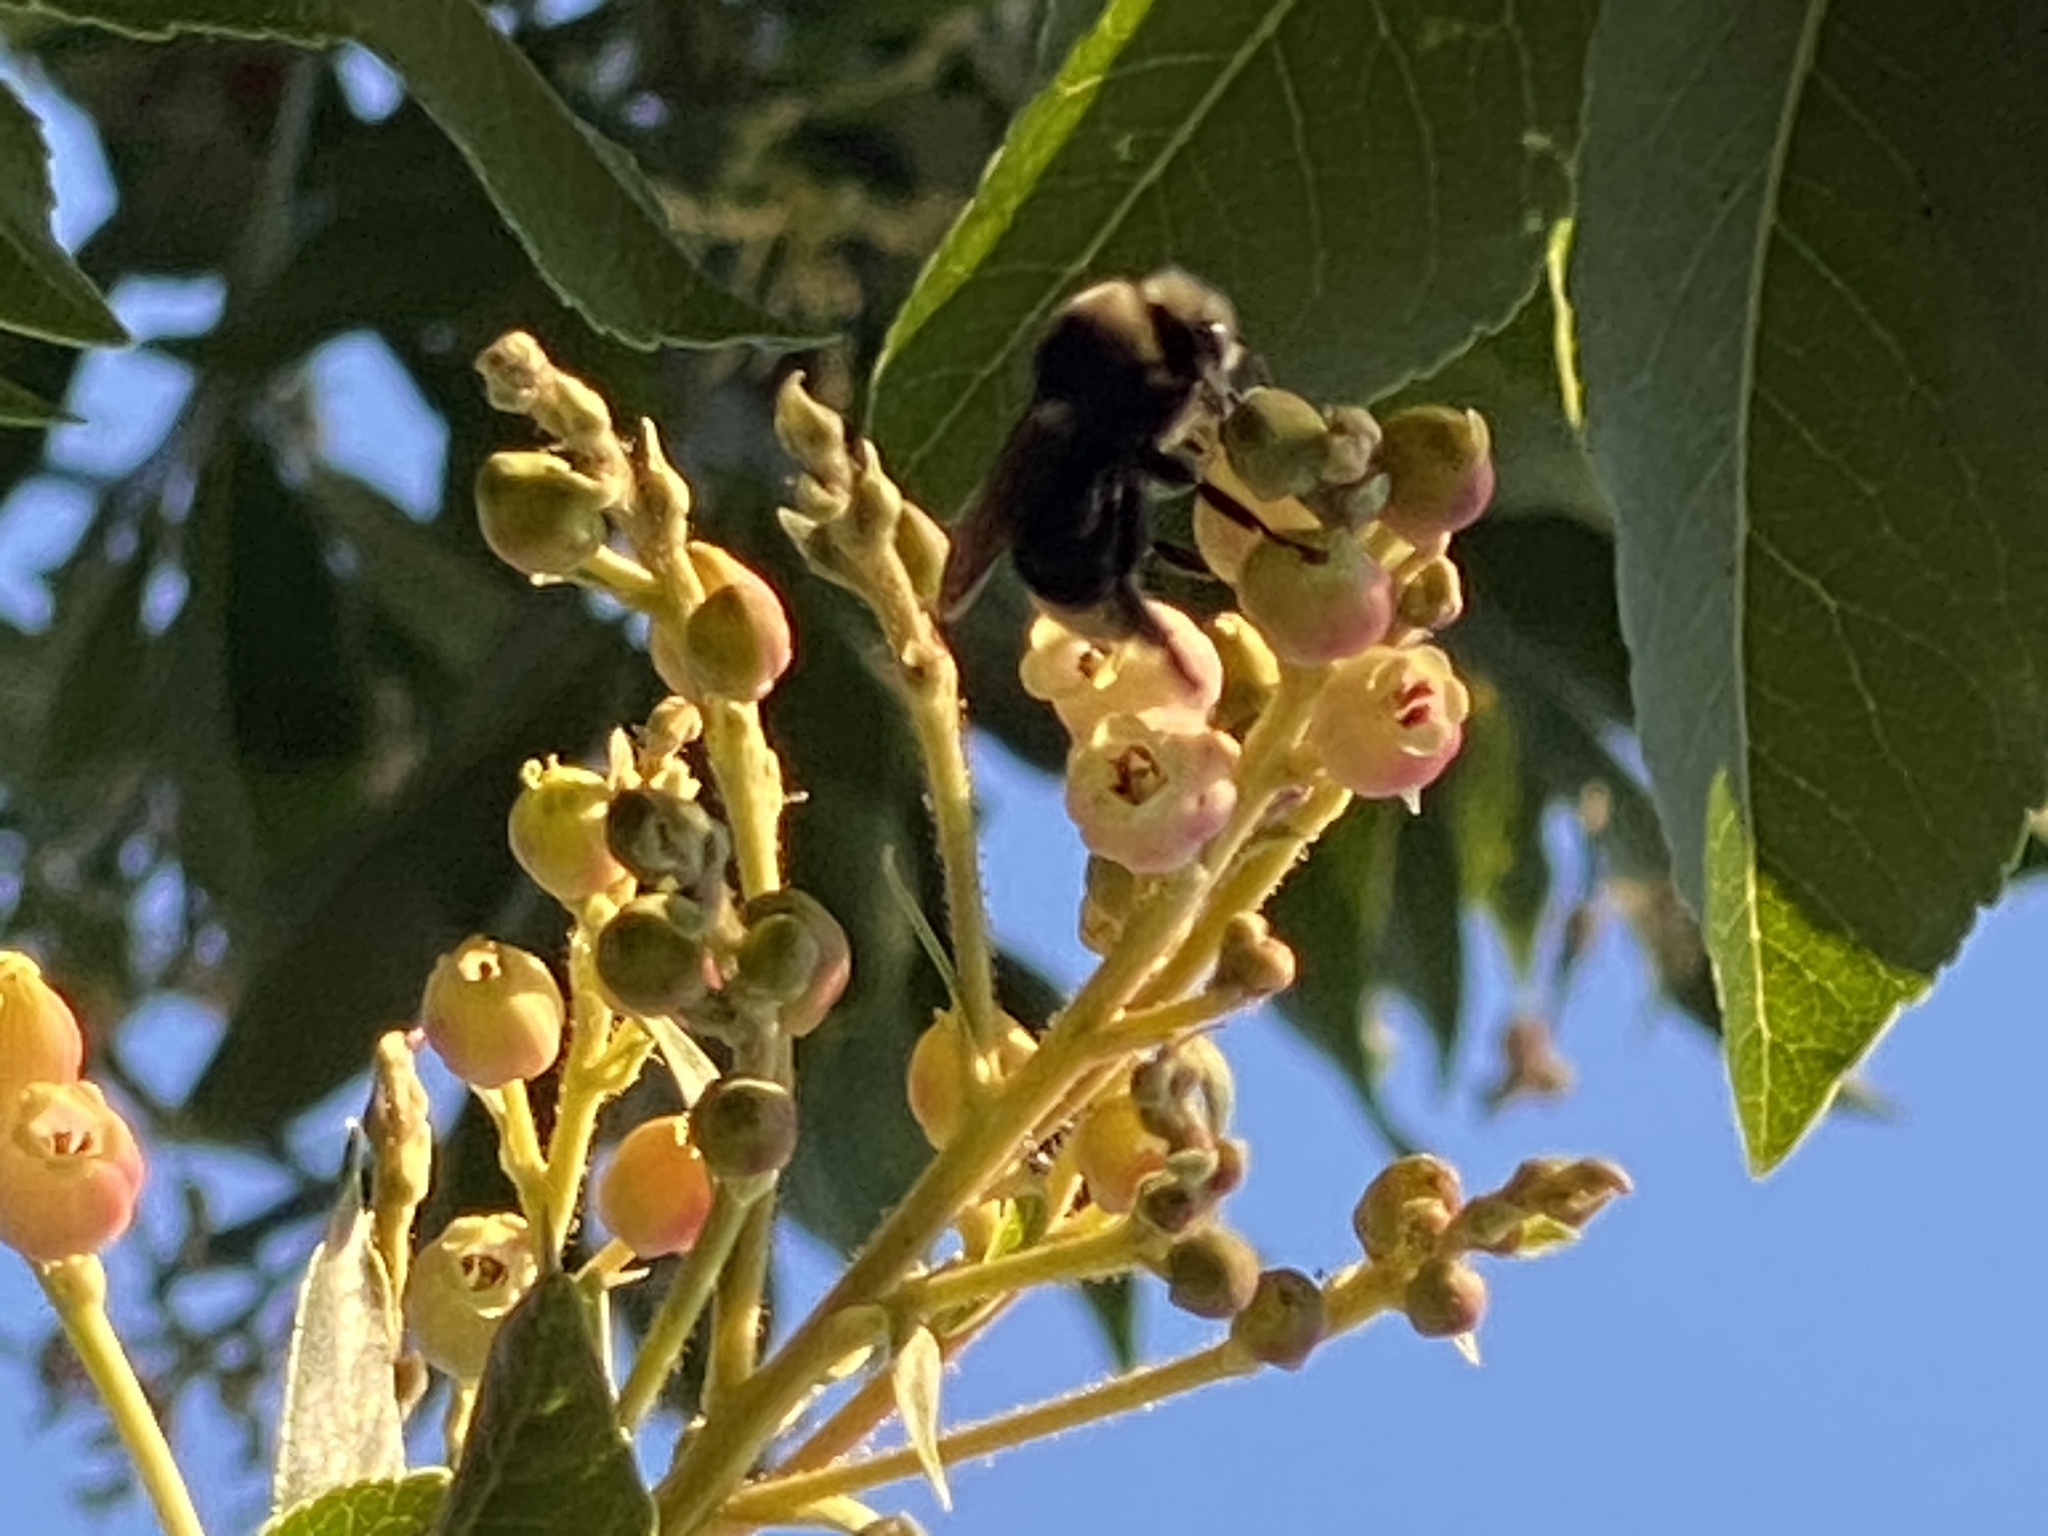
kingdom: Animalia
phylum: Arthropoda
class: Insecta
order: Hymenoptera
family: Apidae
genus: Bombus
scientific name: Bombus vosnesenskii
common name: Vosnesensky bumble bee
